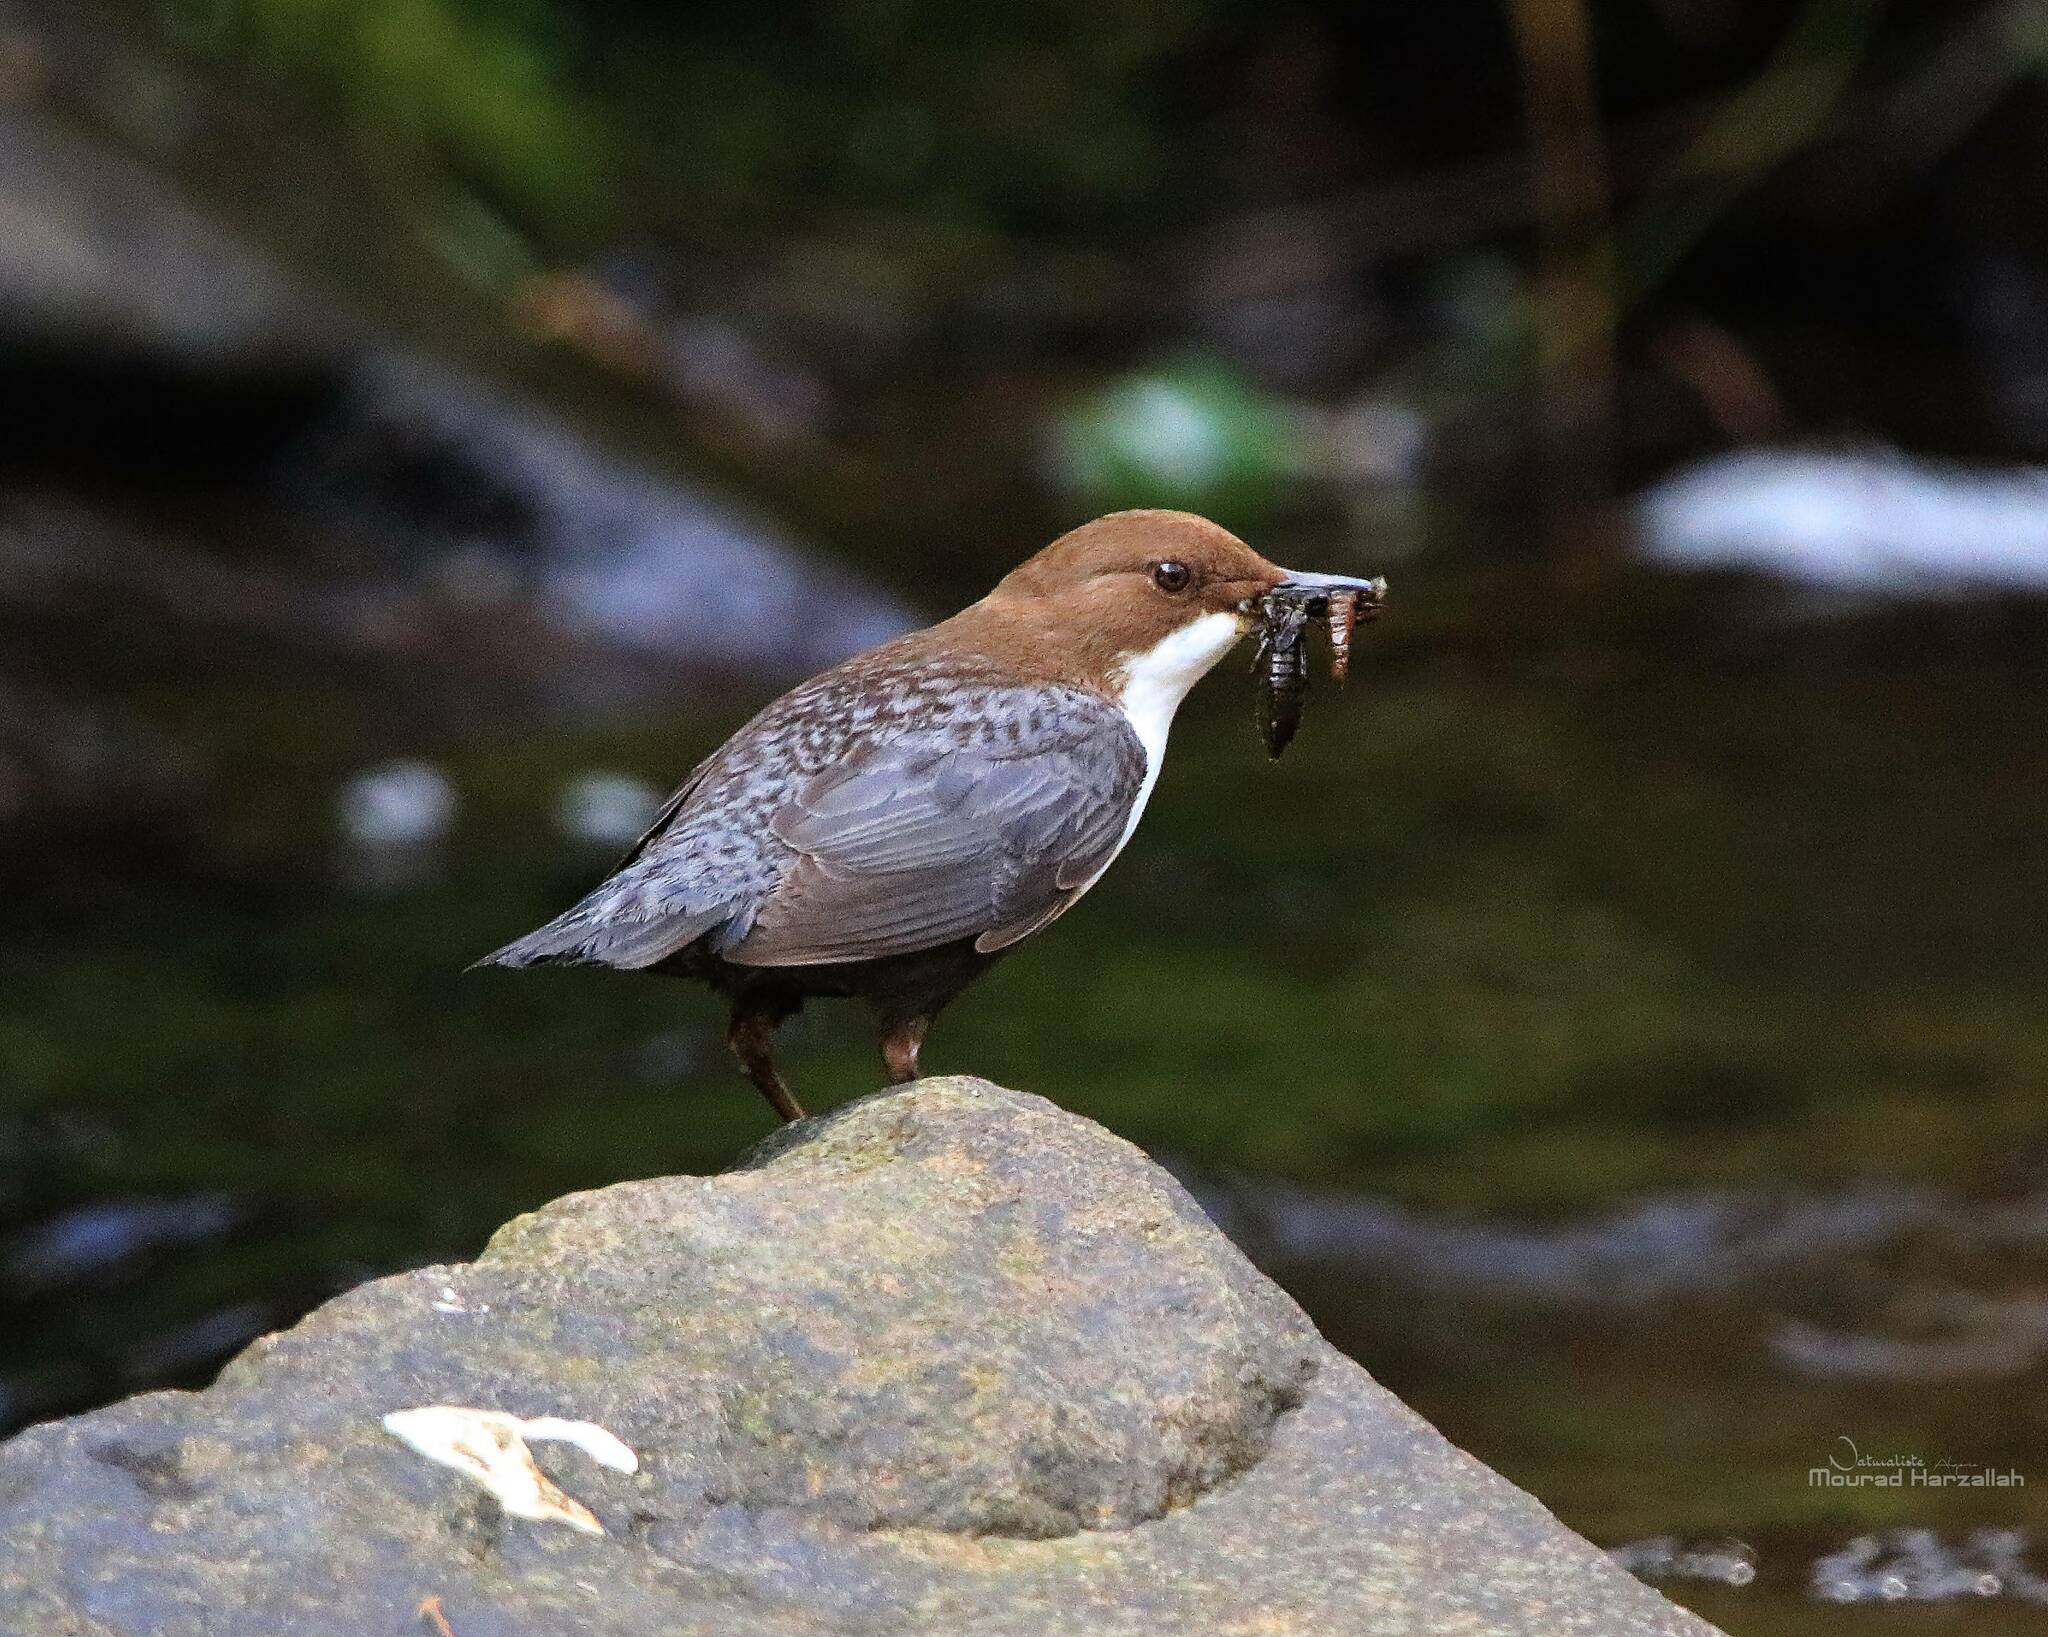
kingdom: Animalia
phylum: Chordata
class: Aves
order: Passeriformes
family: Cinclidae
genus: Cinclus
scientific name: Cinclus cinclus
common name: White-throated dipper
